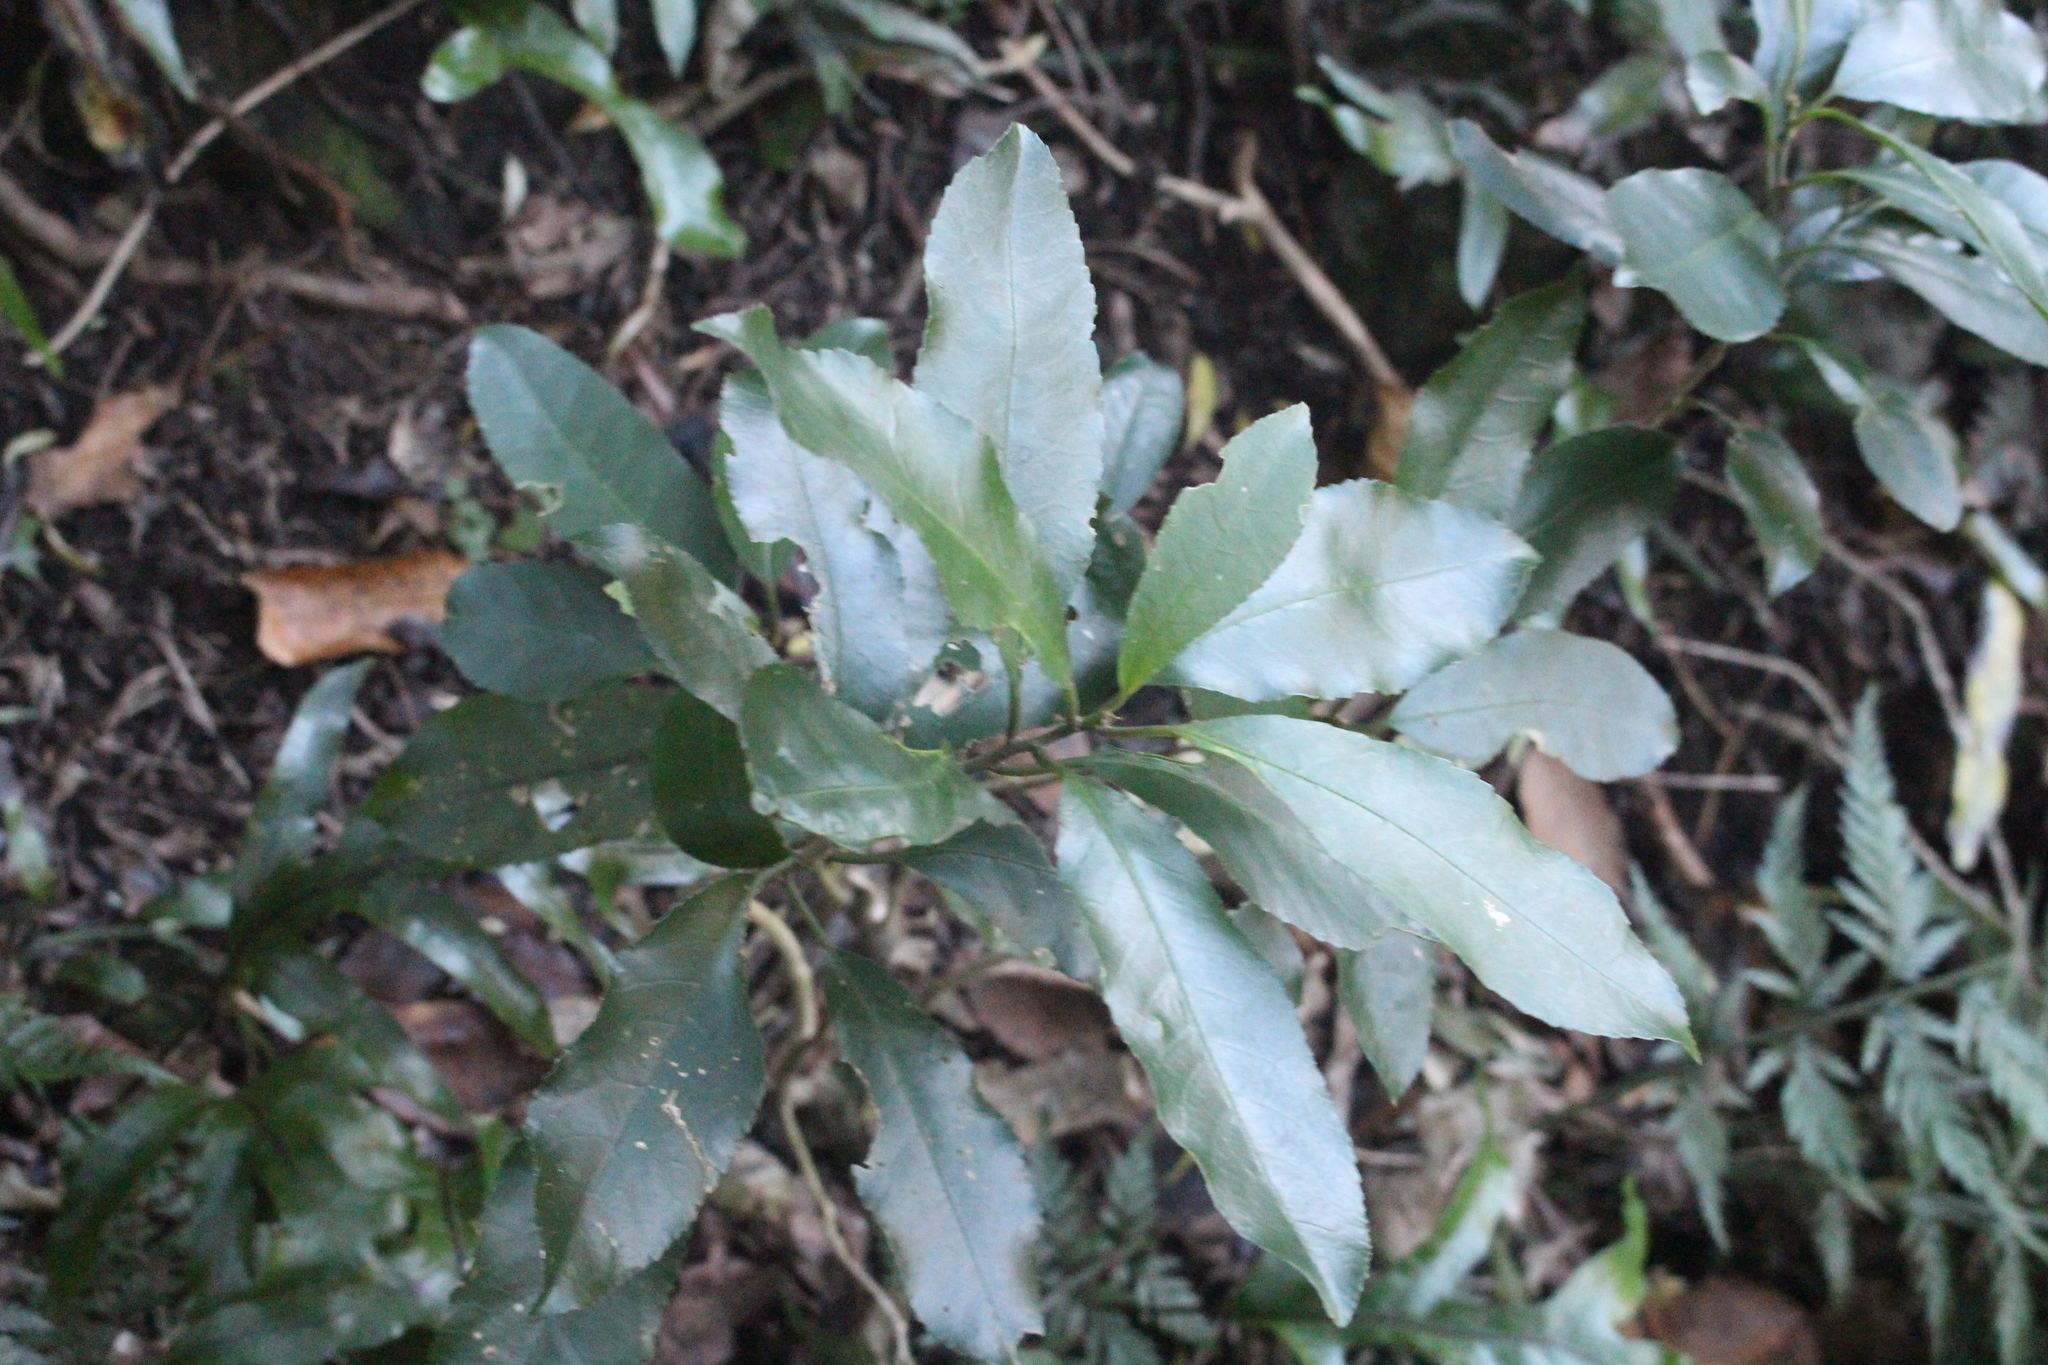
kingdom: Plantae
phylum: Tracheophyta
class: Magnoliopsida
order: Malpighiales
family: Violaceae
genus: Melicytus
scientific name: Melicytus ramiflorus
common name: Mahoe
